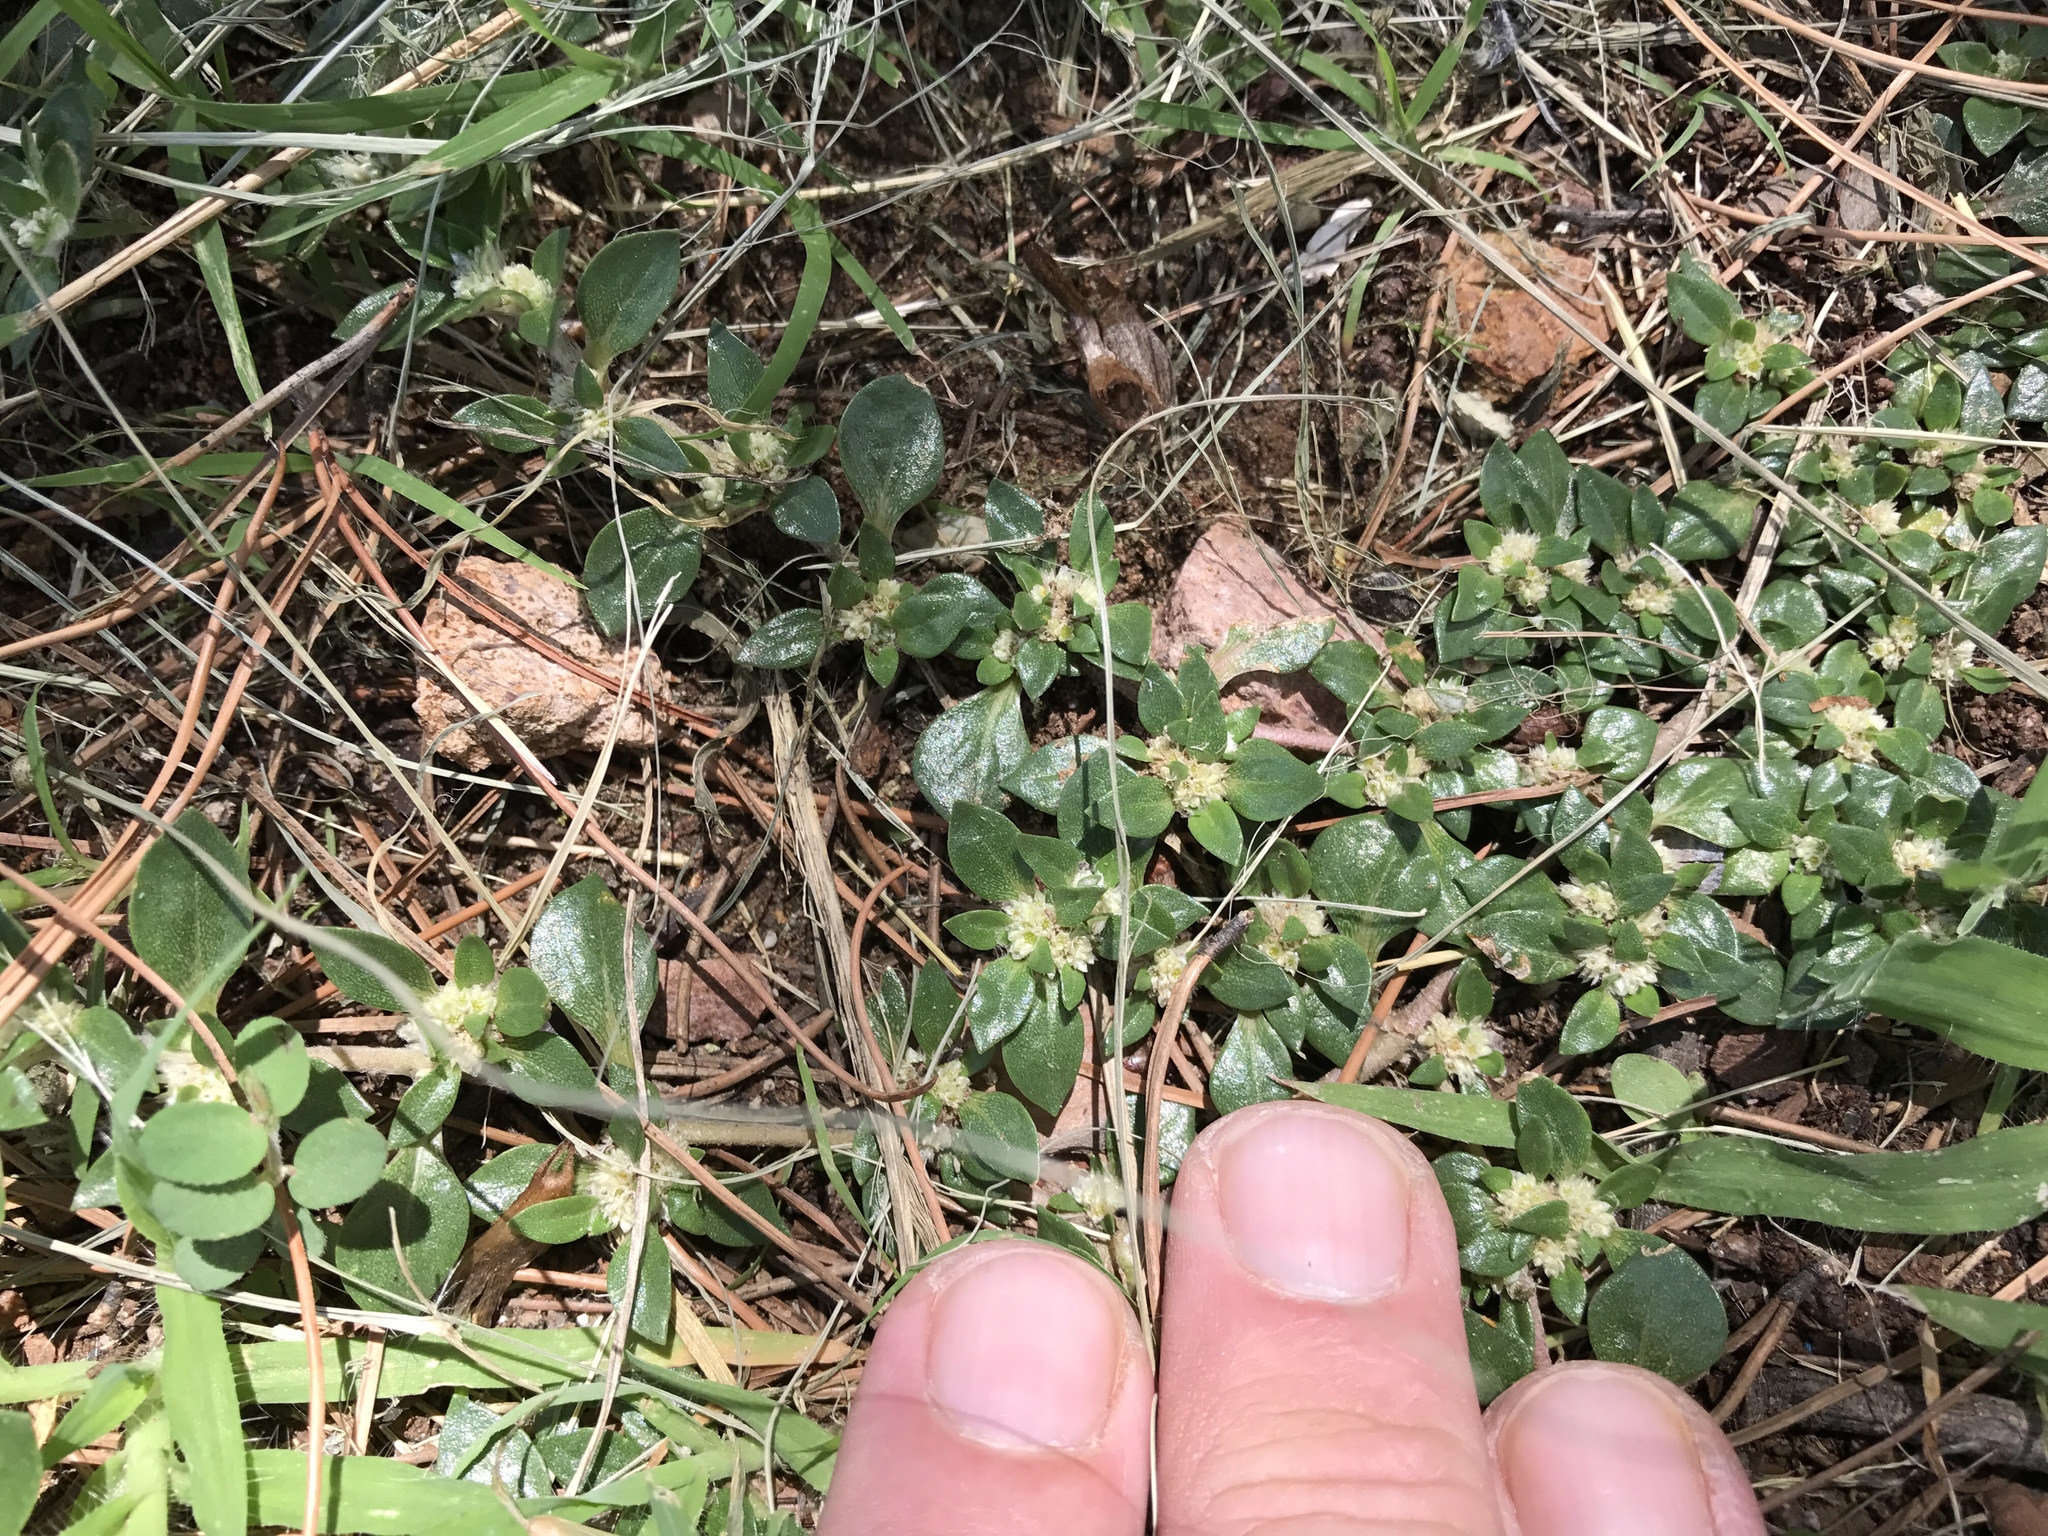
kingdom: Plantae
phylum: Tracheophyta
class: Magnoliopsida
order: Caryophyllales
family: Amaranthaceae
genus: Guilleminea
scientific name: Guilleminea densa
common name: Small matweed
